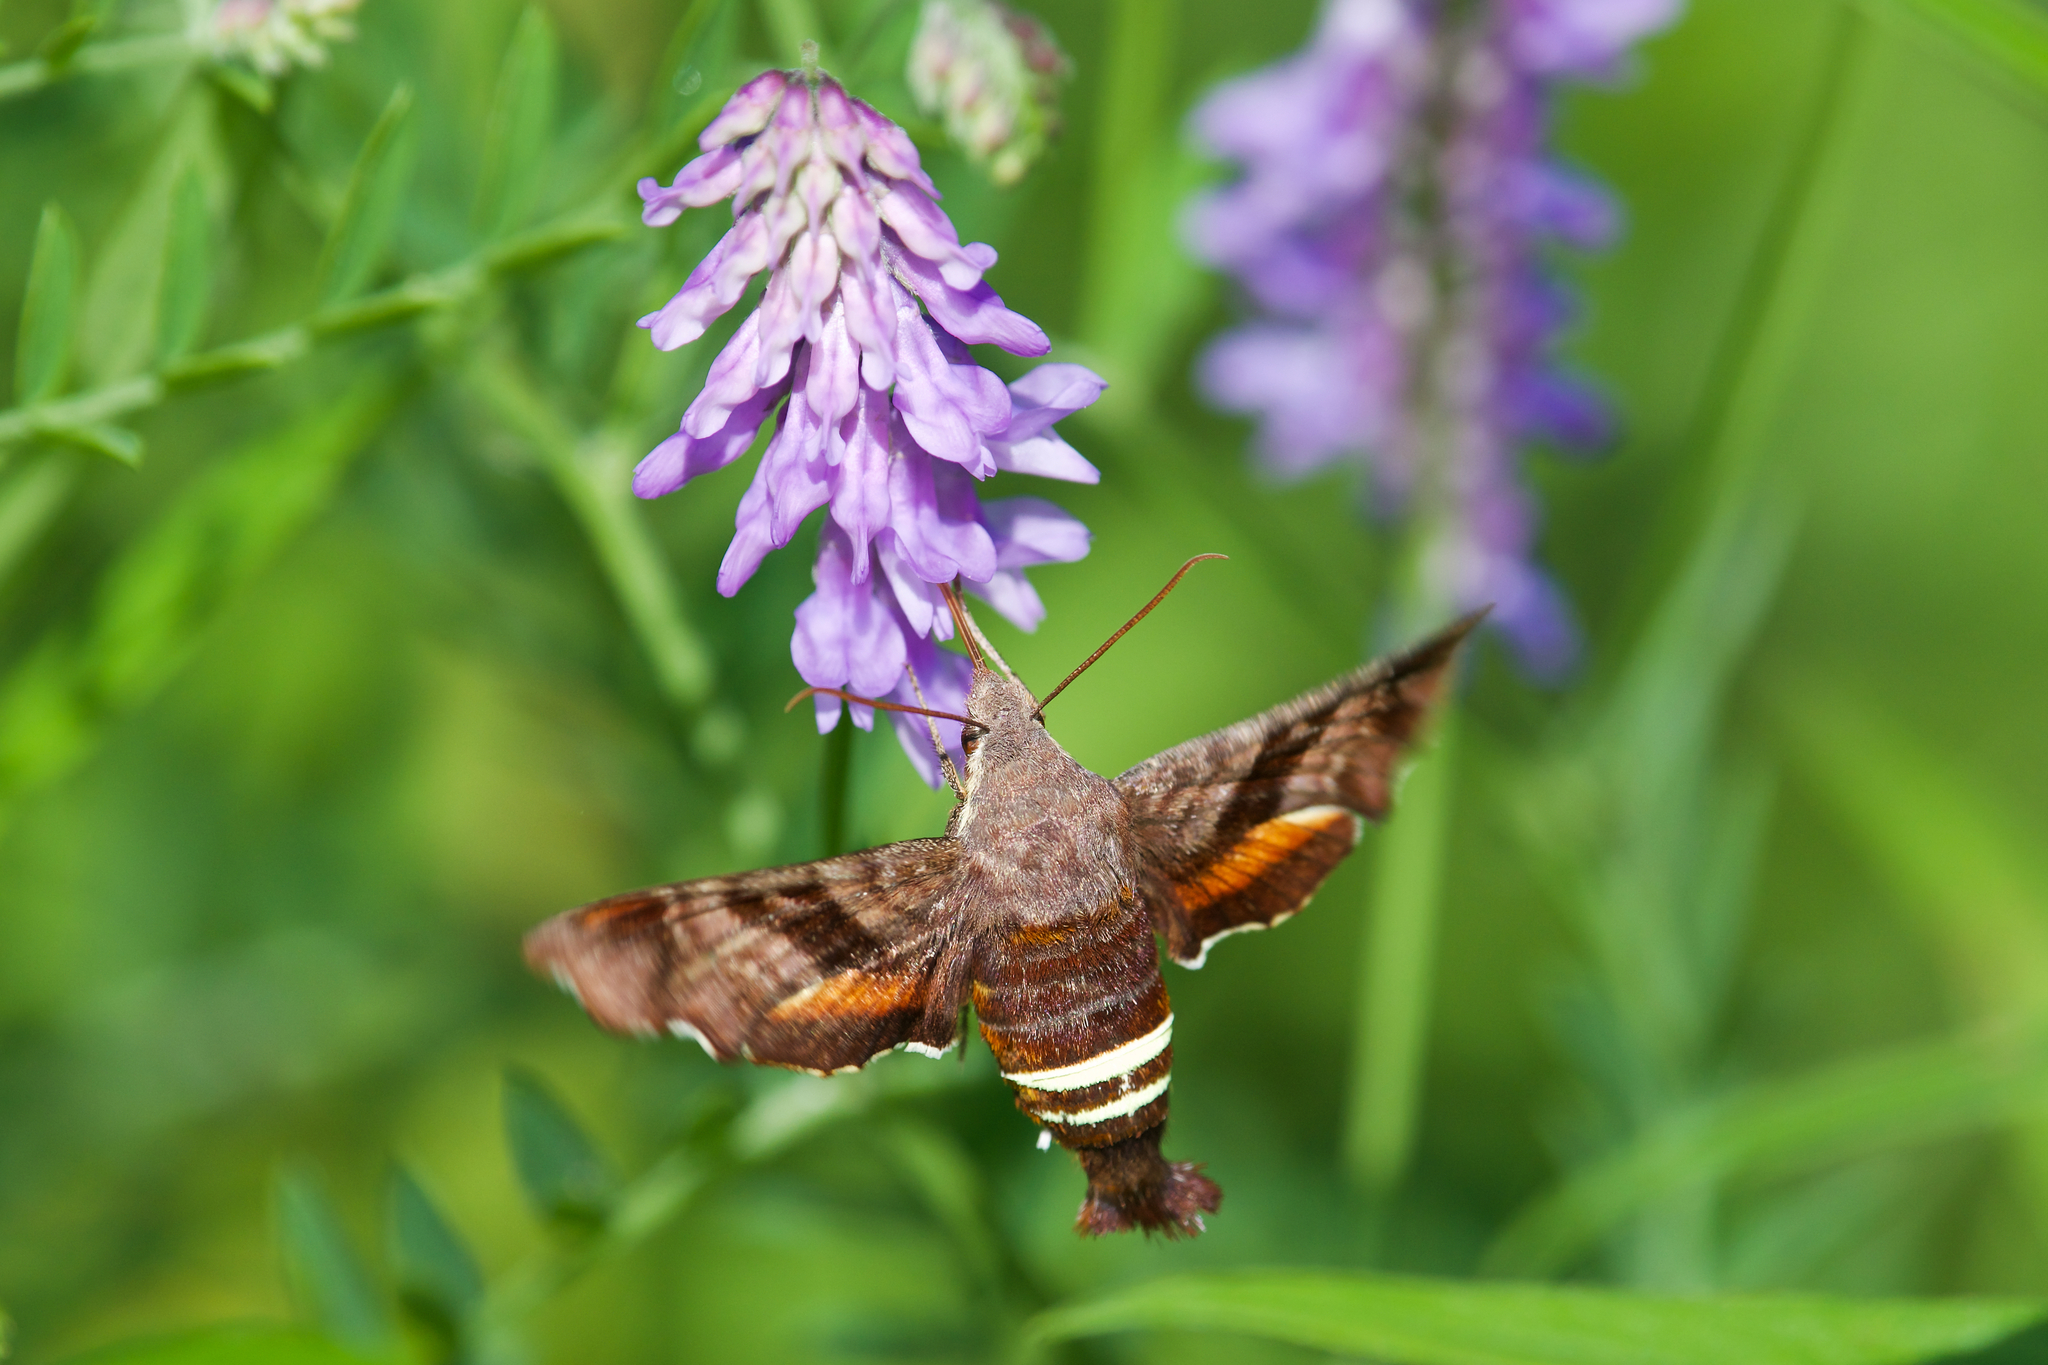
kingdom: Animalia
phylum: Arthropoda
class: Insecta
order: Lepidoptera
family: Sphingidae
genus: Amphion
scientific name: Amphion floridensis
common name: Nessus sphinx
